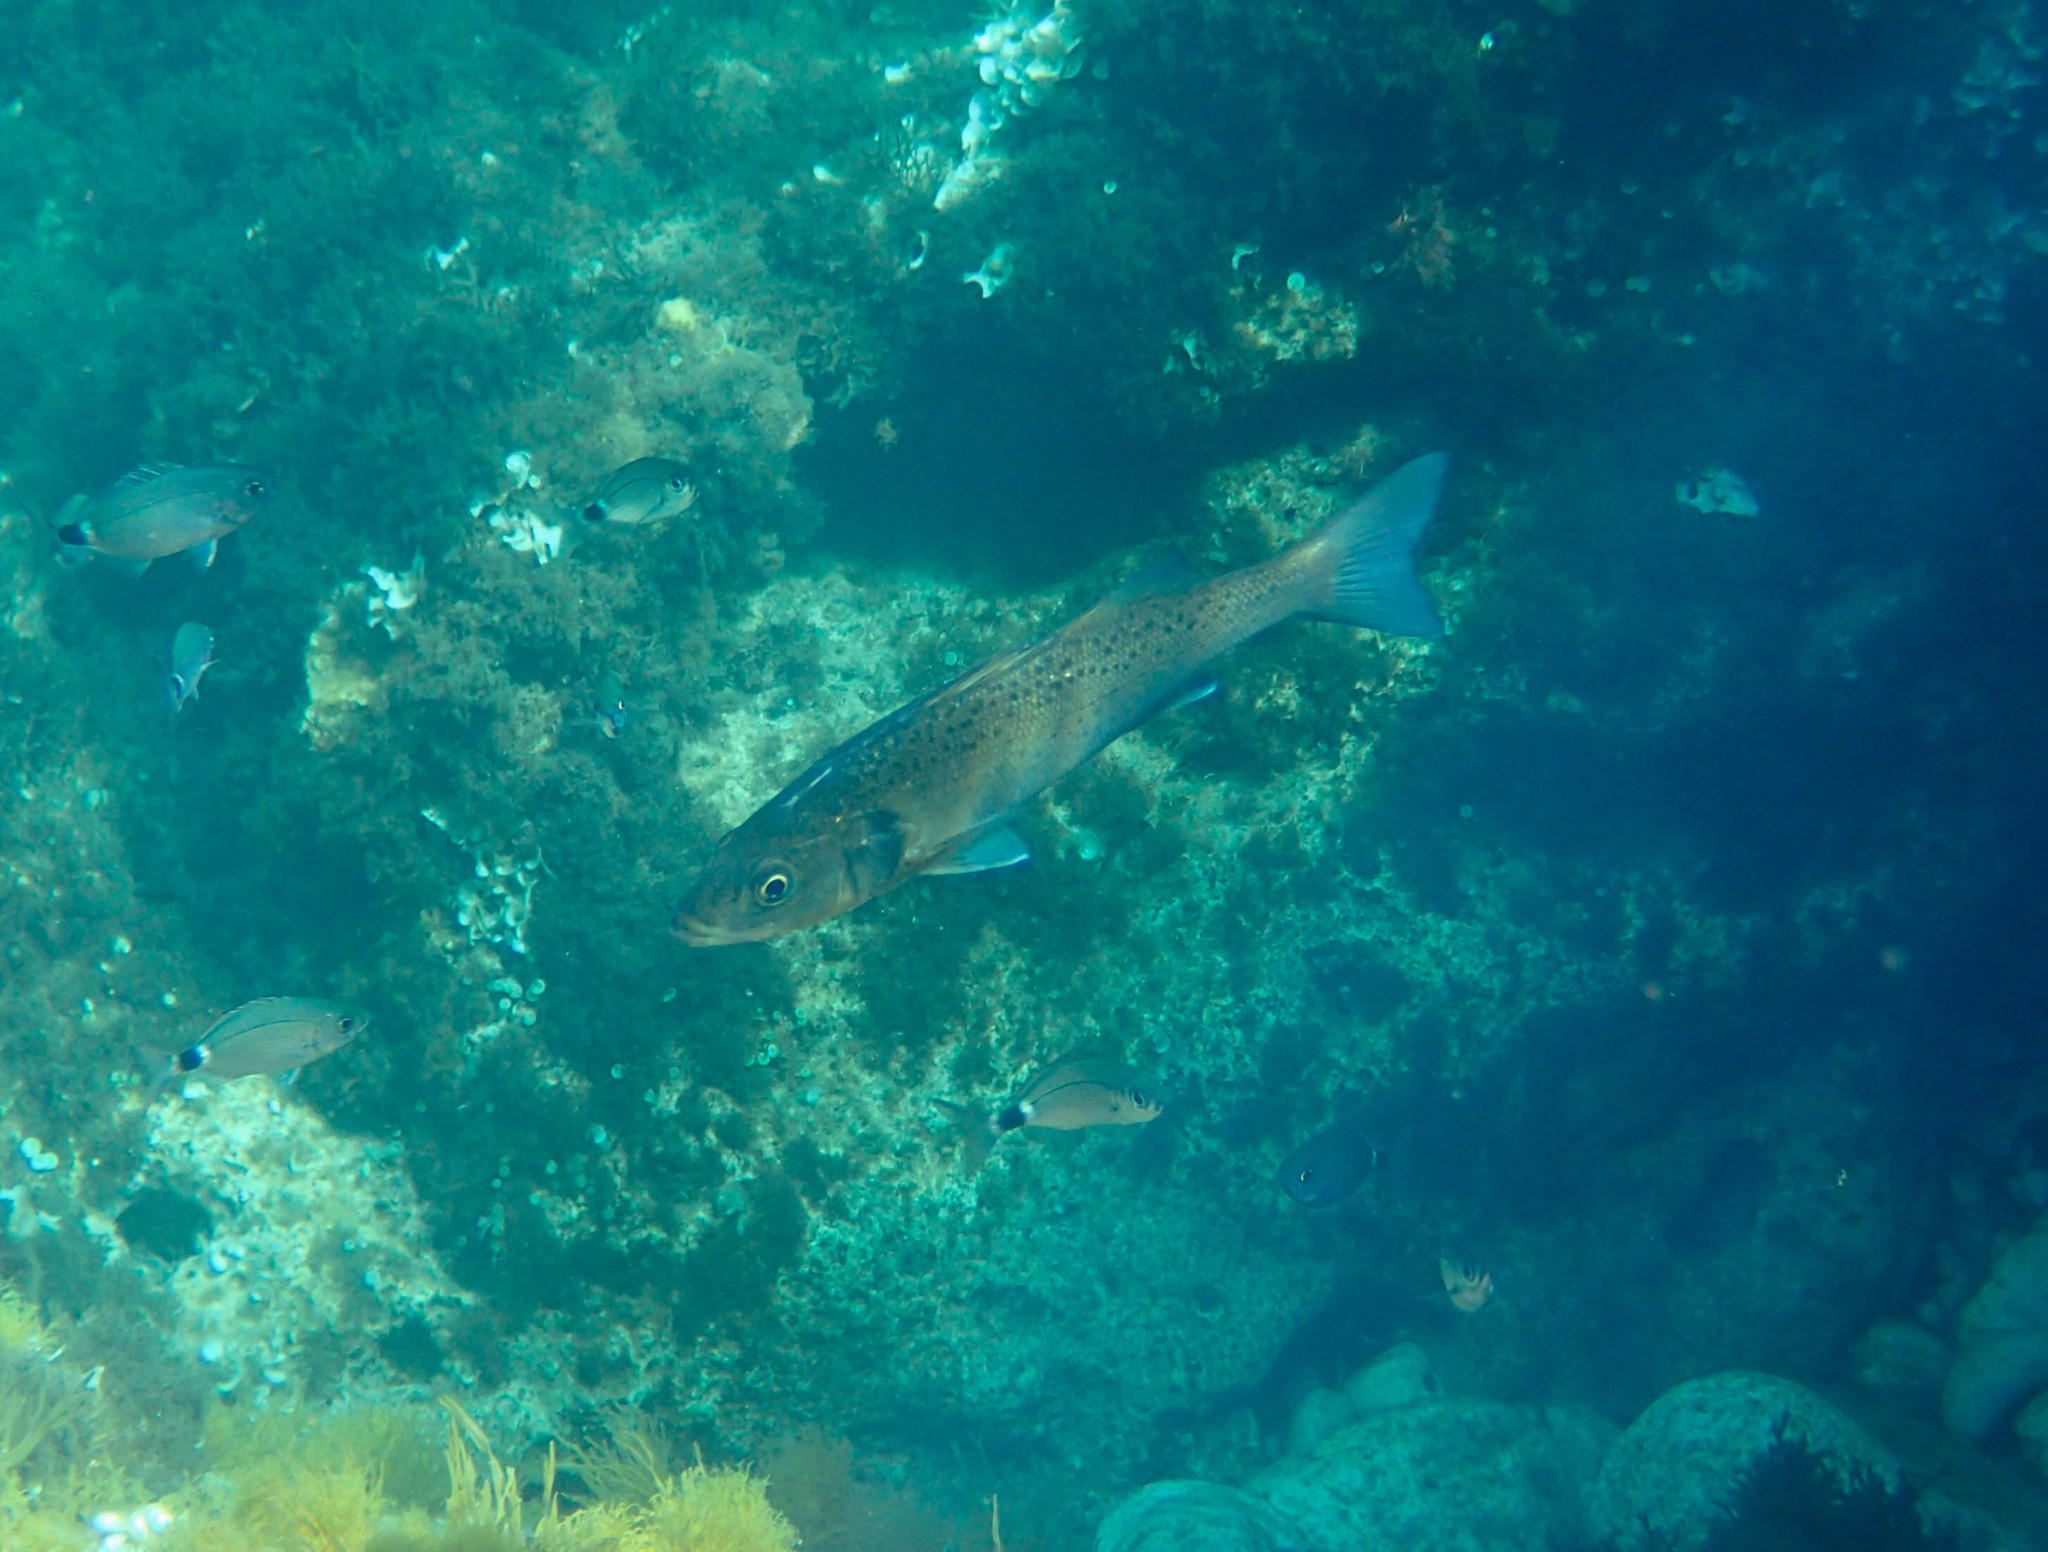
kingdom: Animalia
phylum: Chordata
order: Perciformes
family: Moronidae
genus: Dicentrarchus
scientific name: Dicentrarchus labrax
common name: European seabass
